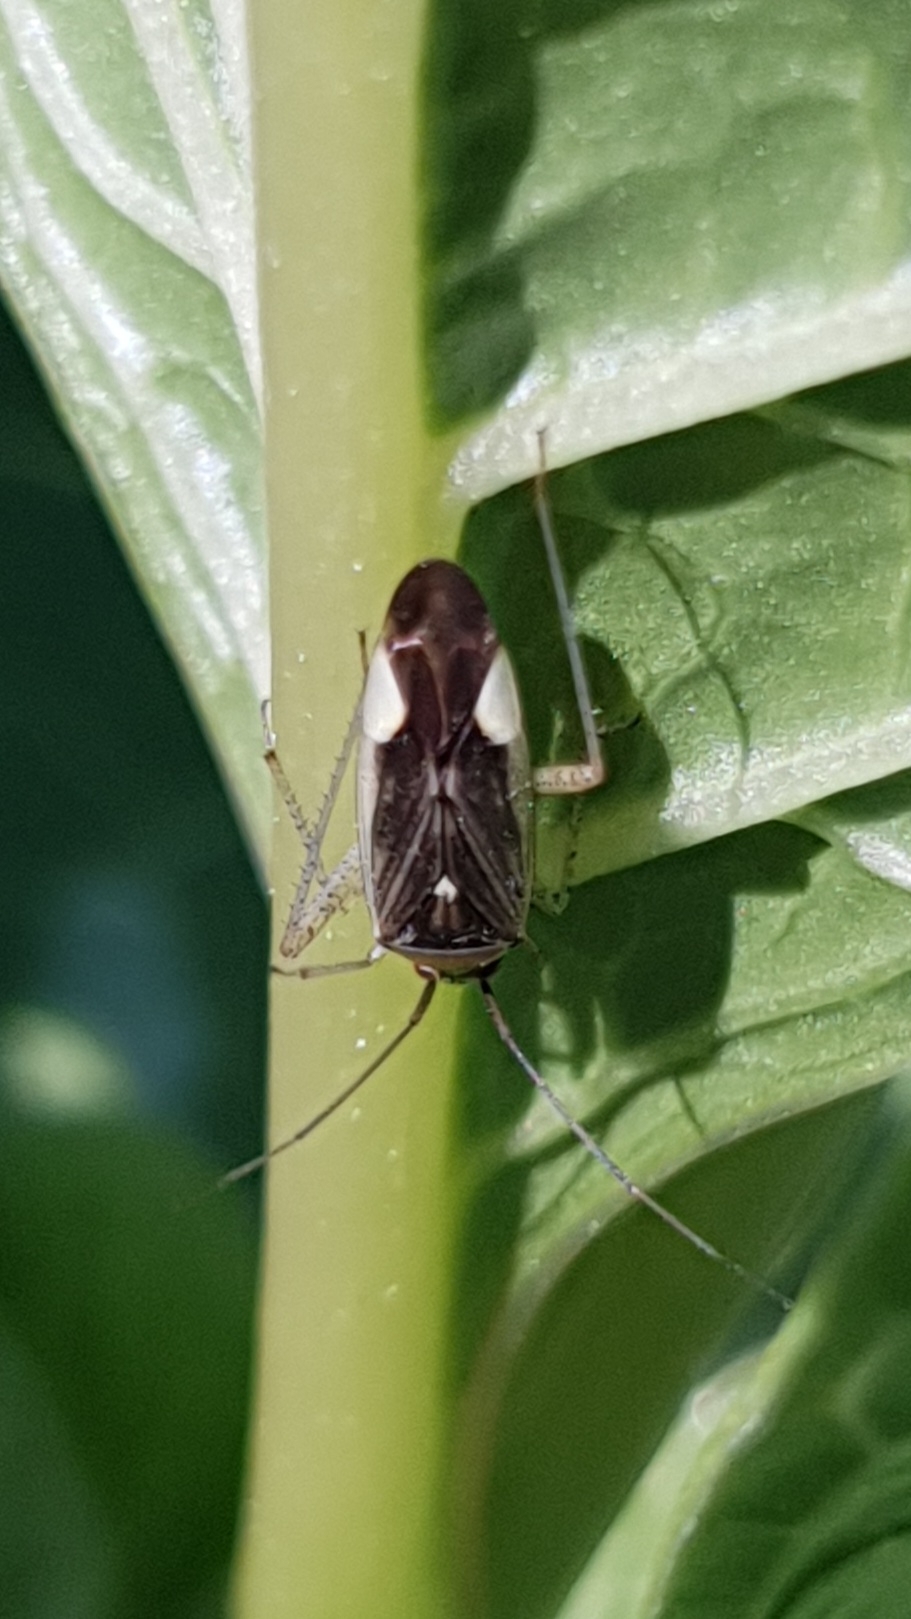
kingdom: Animalia
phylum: Arthropoda
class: Insecta
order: Hemiptera
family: Miridae
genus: Closterotomus
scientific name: Closterotomus trivialis
